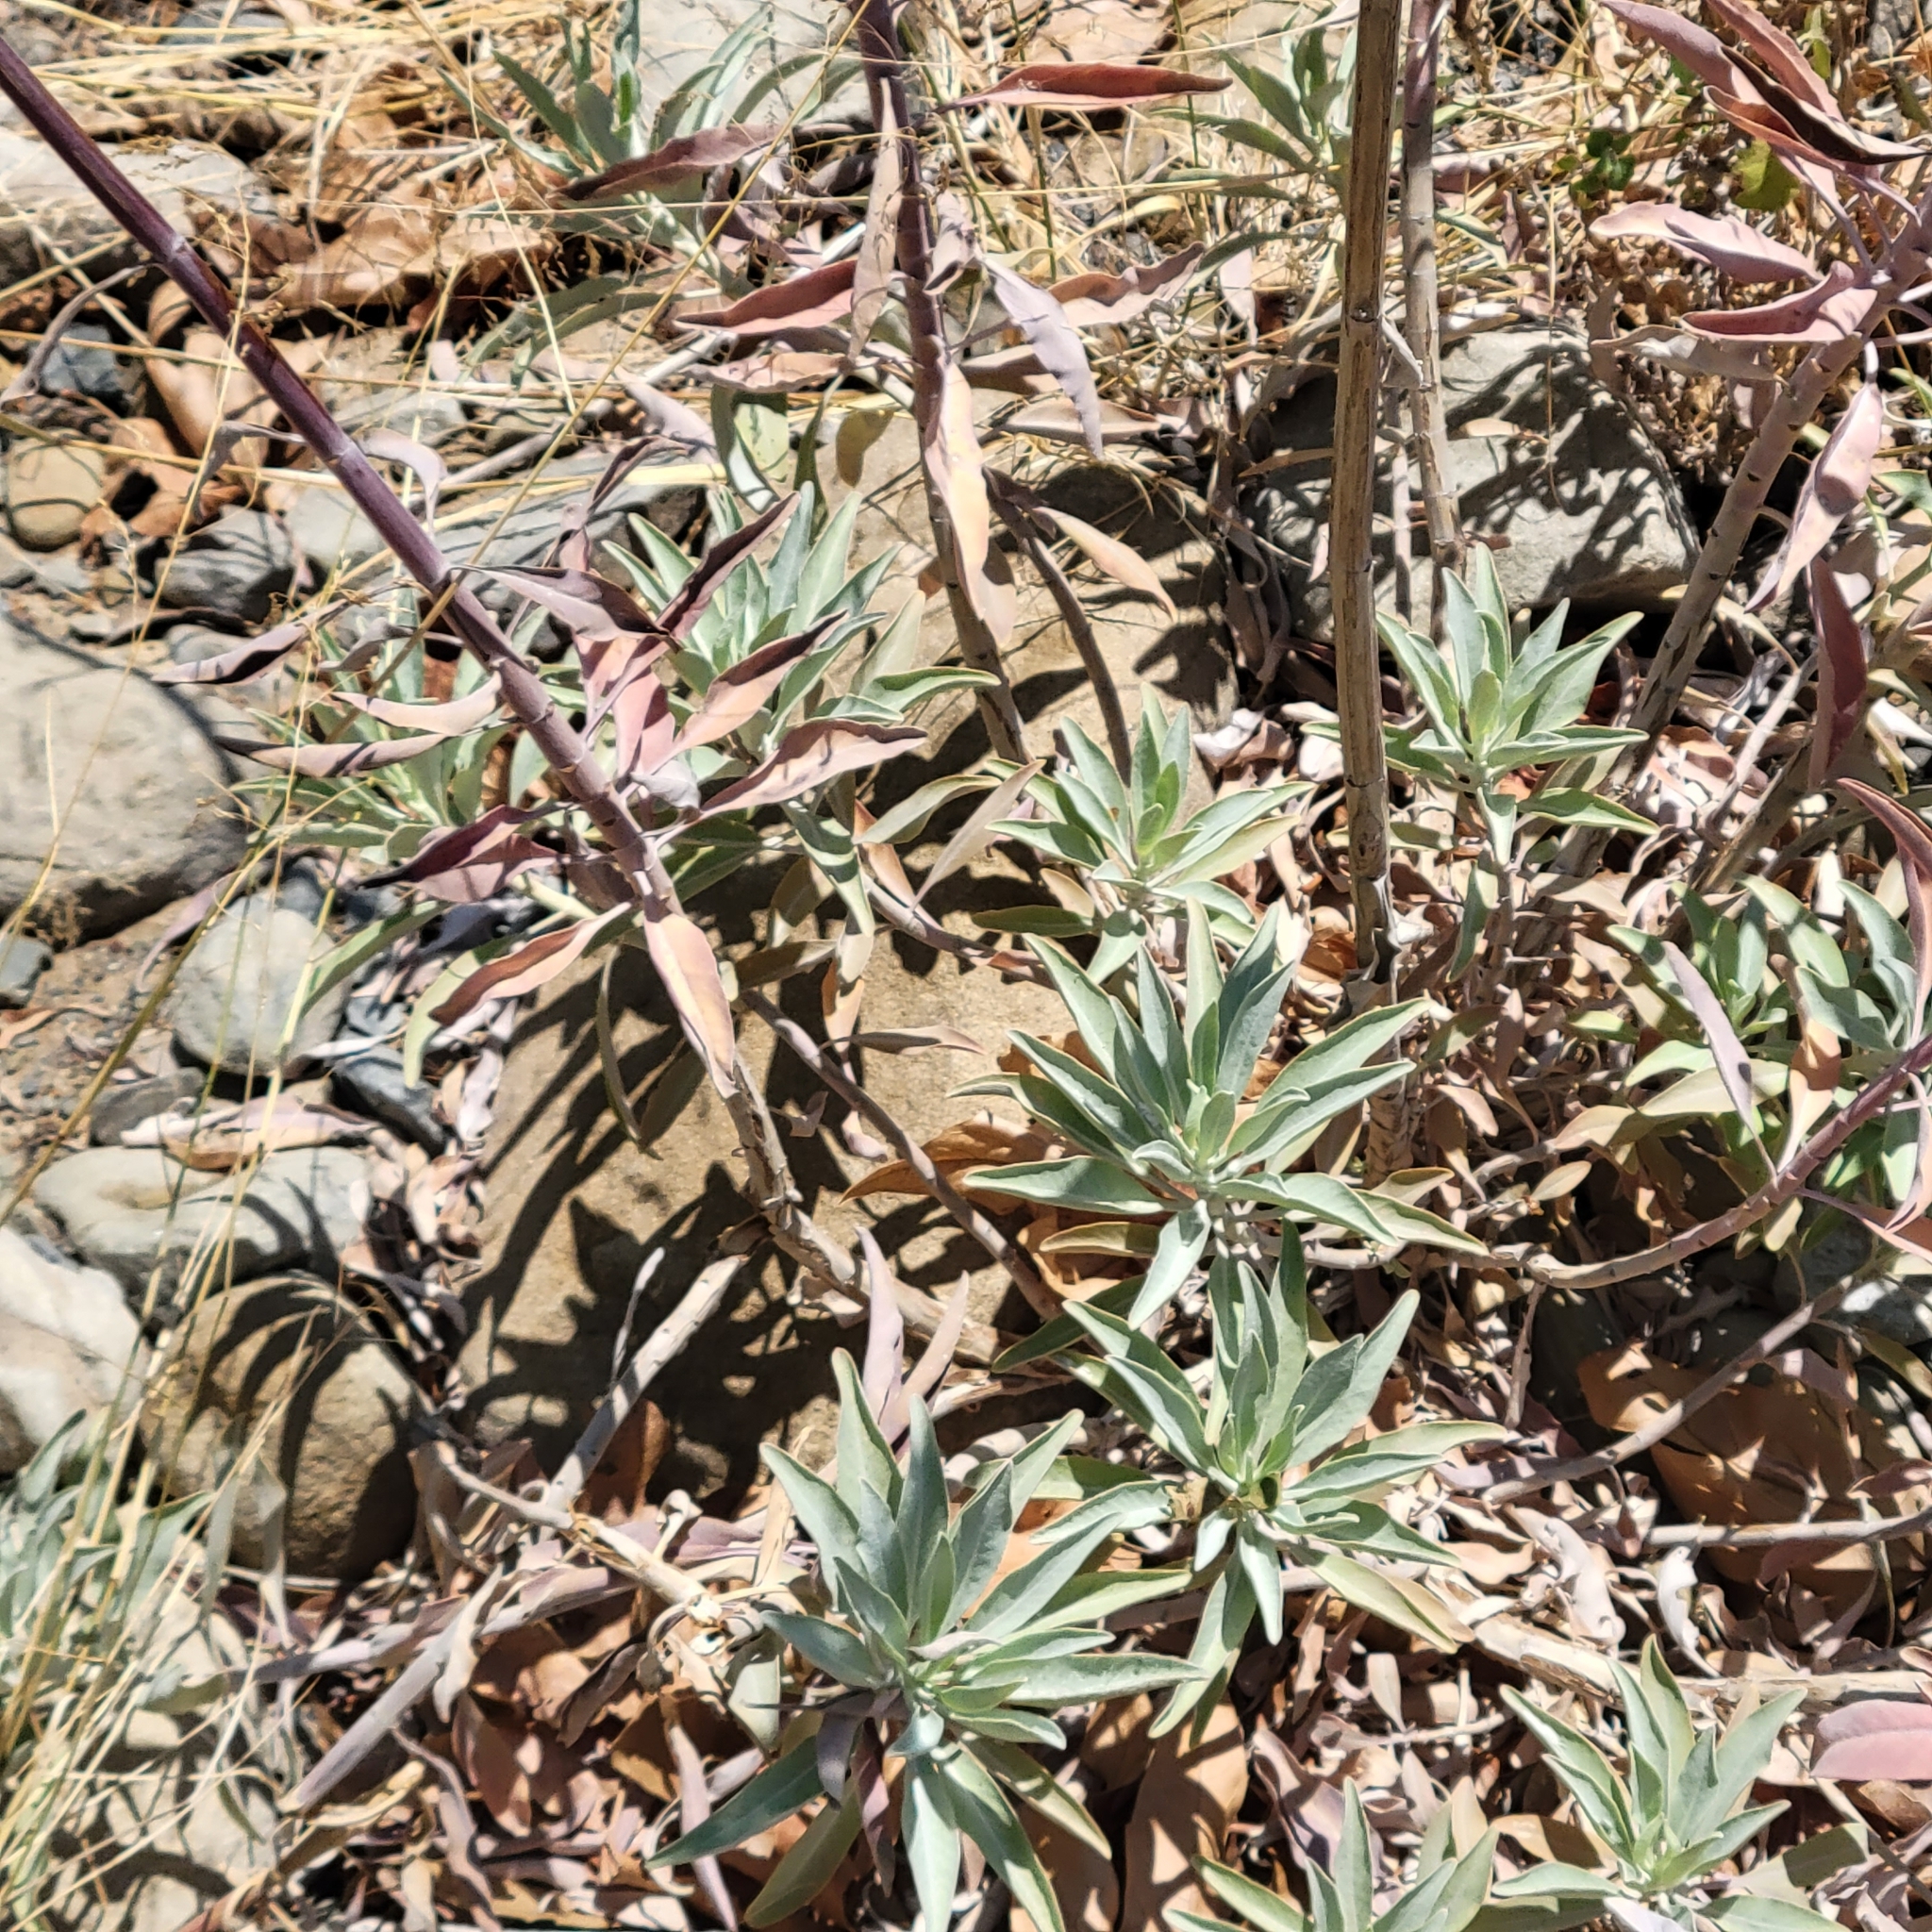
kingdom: Plantae
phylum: Tracheophyta
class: Magnoliopsida
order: Lamiales
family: Lamiaceae
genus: Salvia
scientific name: Salvia apiana
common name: White sage
